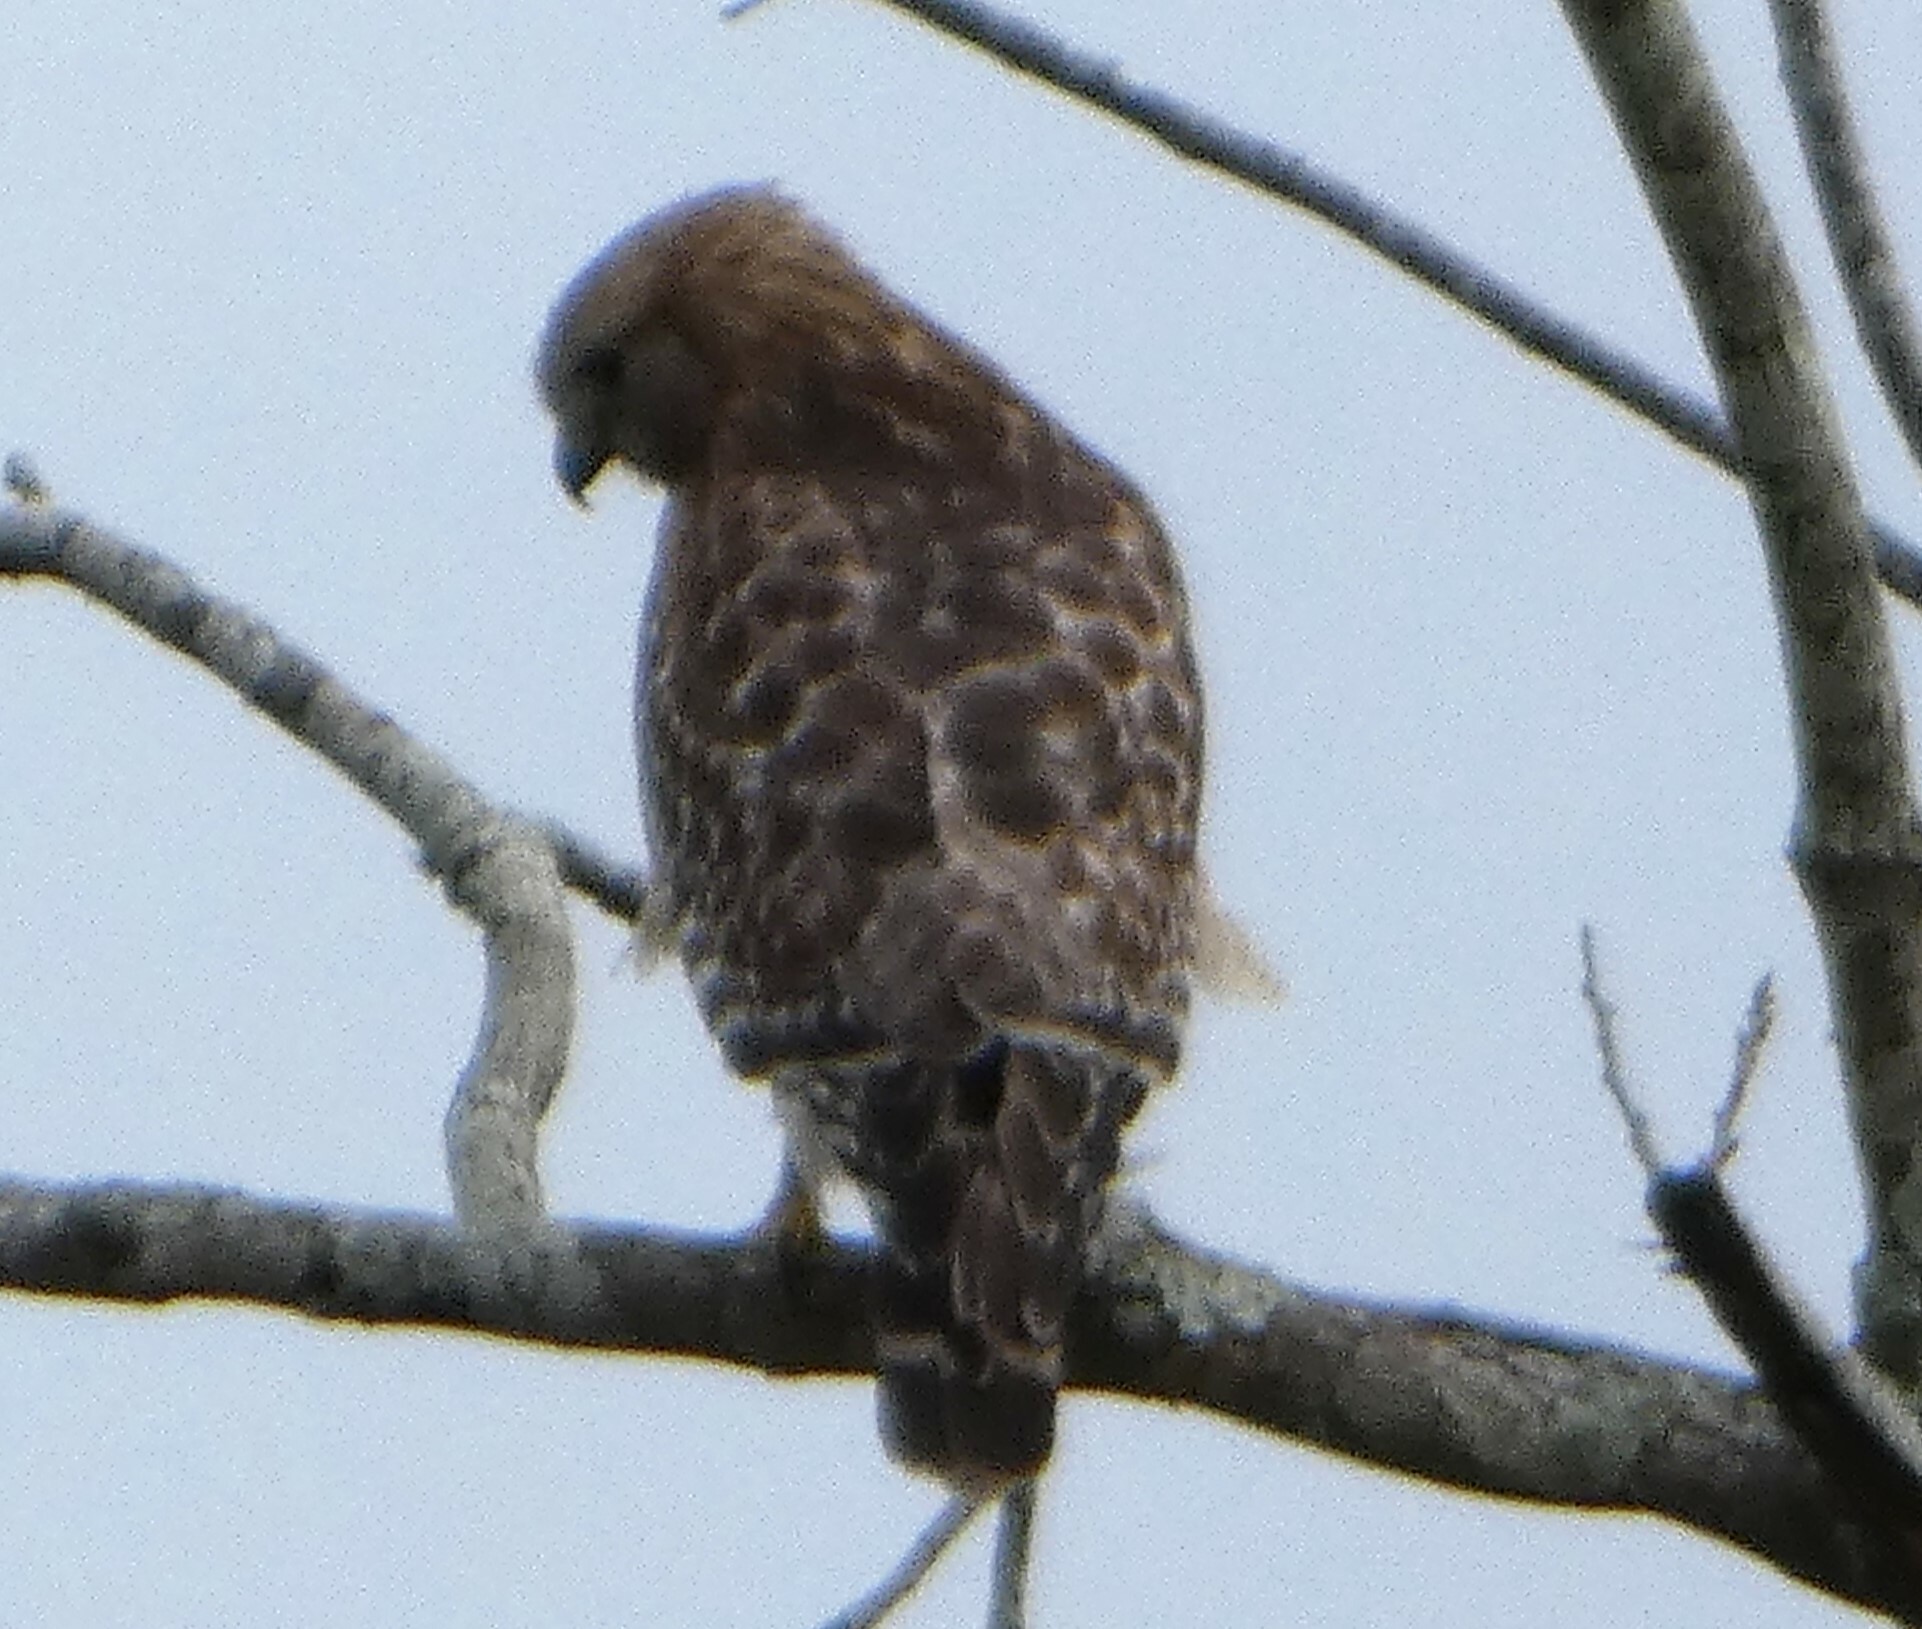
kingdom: Animalia
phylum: Chordata
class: Aves
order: Accipitriformes
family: Accipitridae
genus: Buteo
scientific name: Buteo lineatus
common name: Red-shouldered hawk
